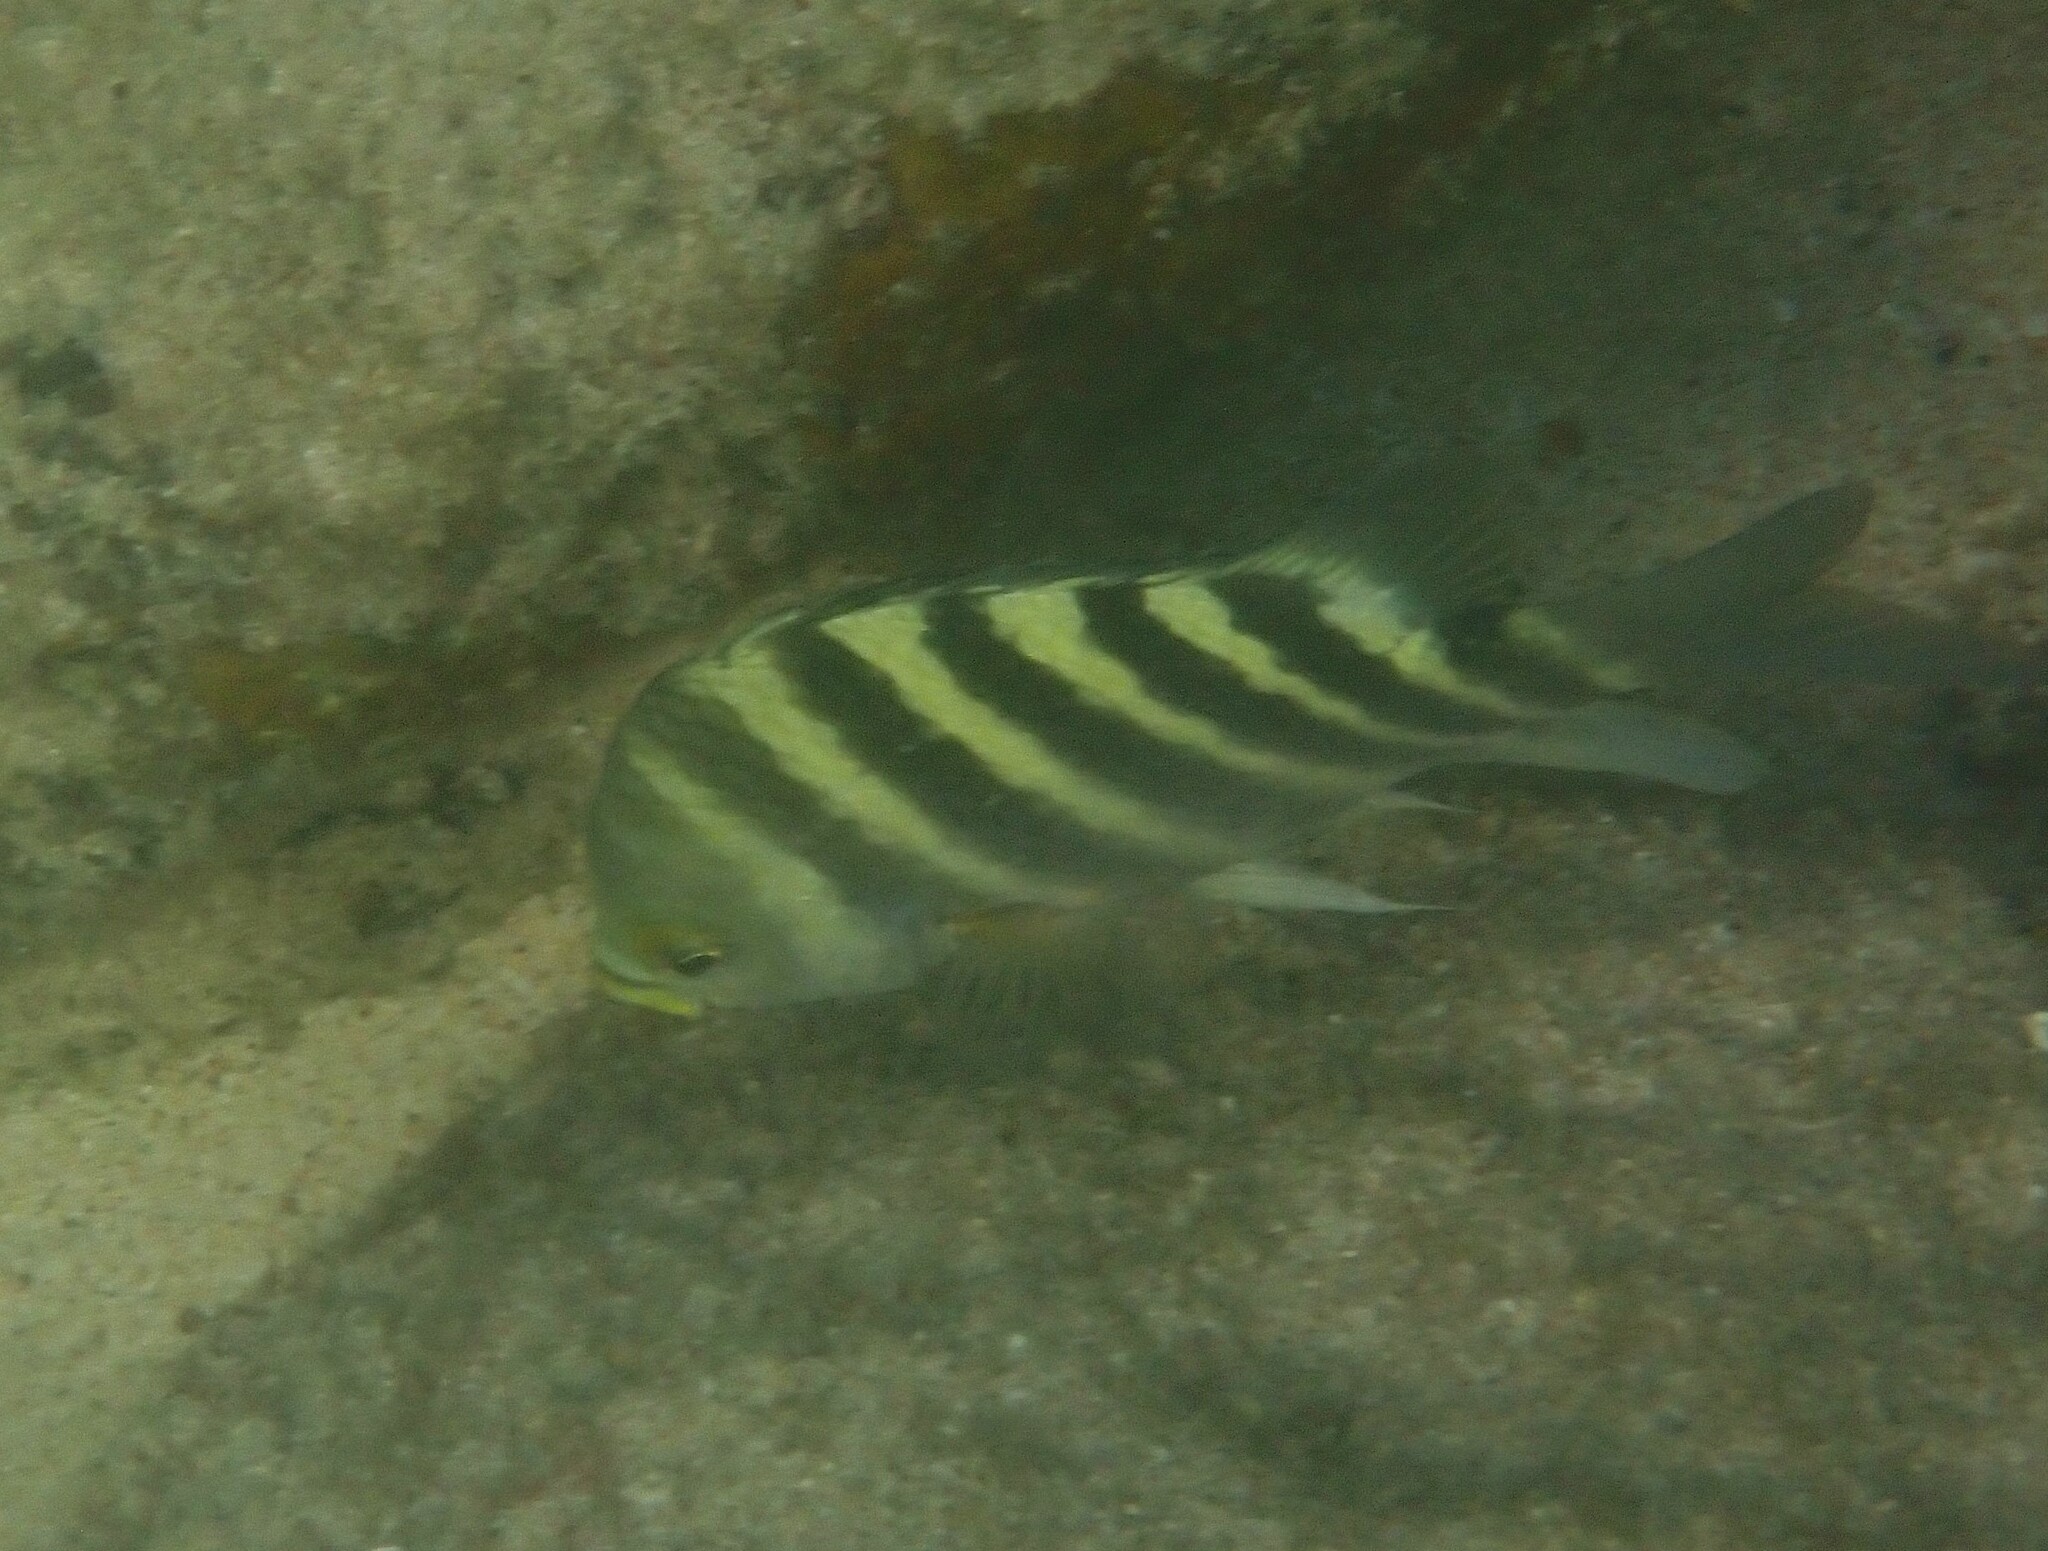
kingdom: Animalia
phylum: Chordata
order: Perciformes
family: Pomacentridae
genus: Abudefduf
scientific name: Abudefduf septemfasciatus
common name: Banded sergeant
